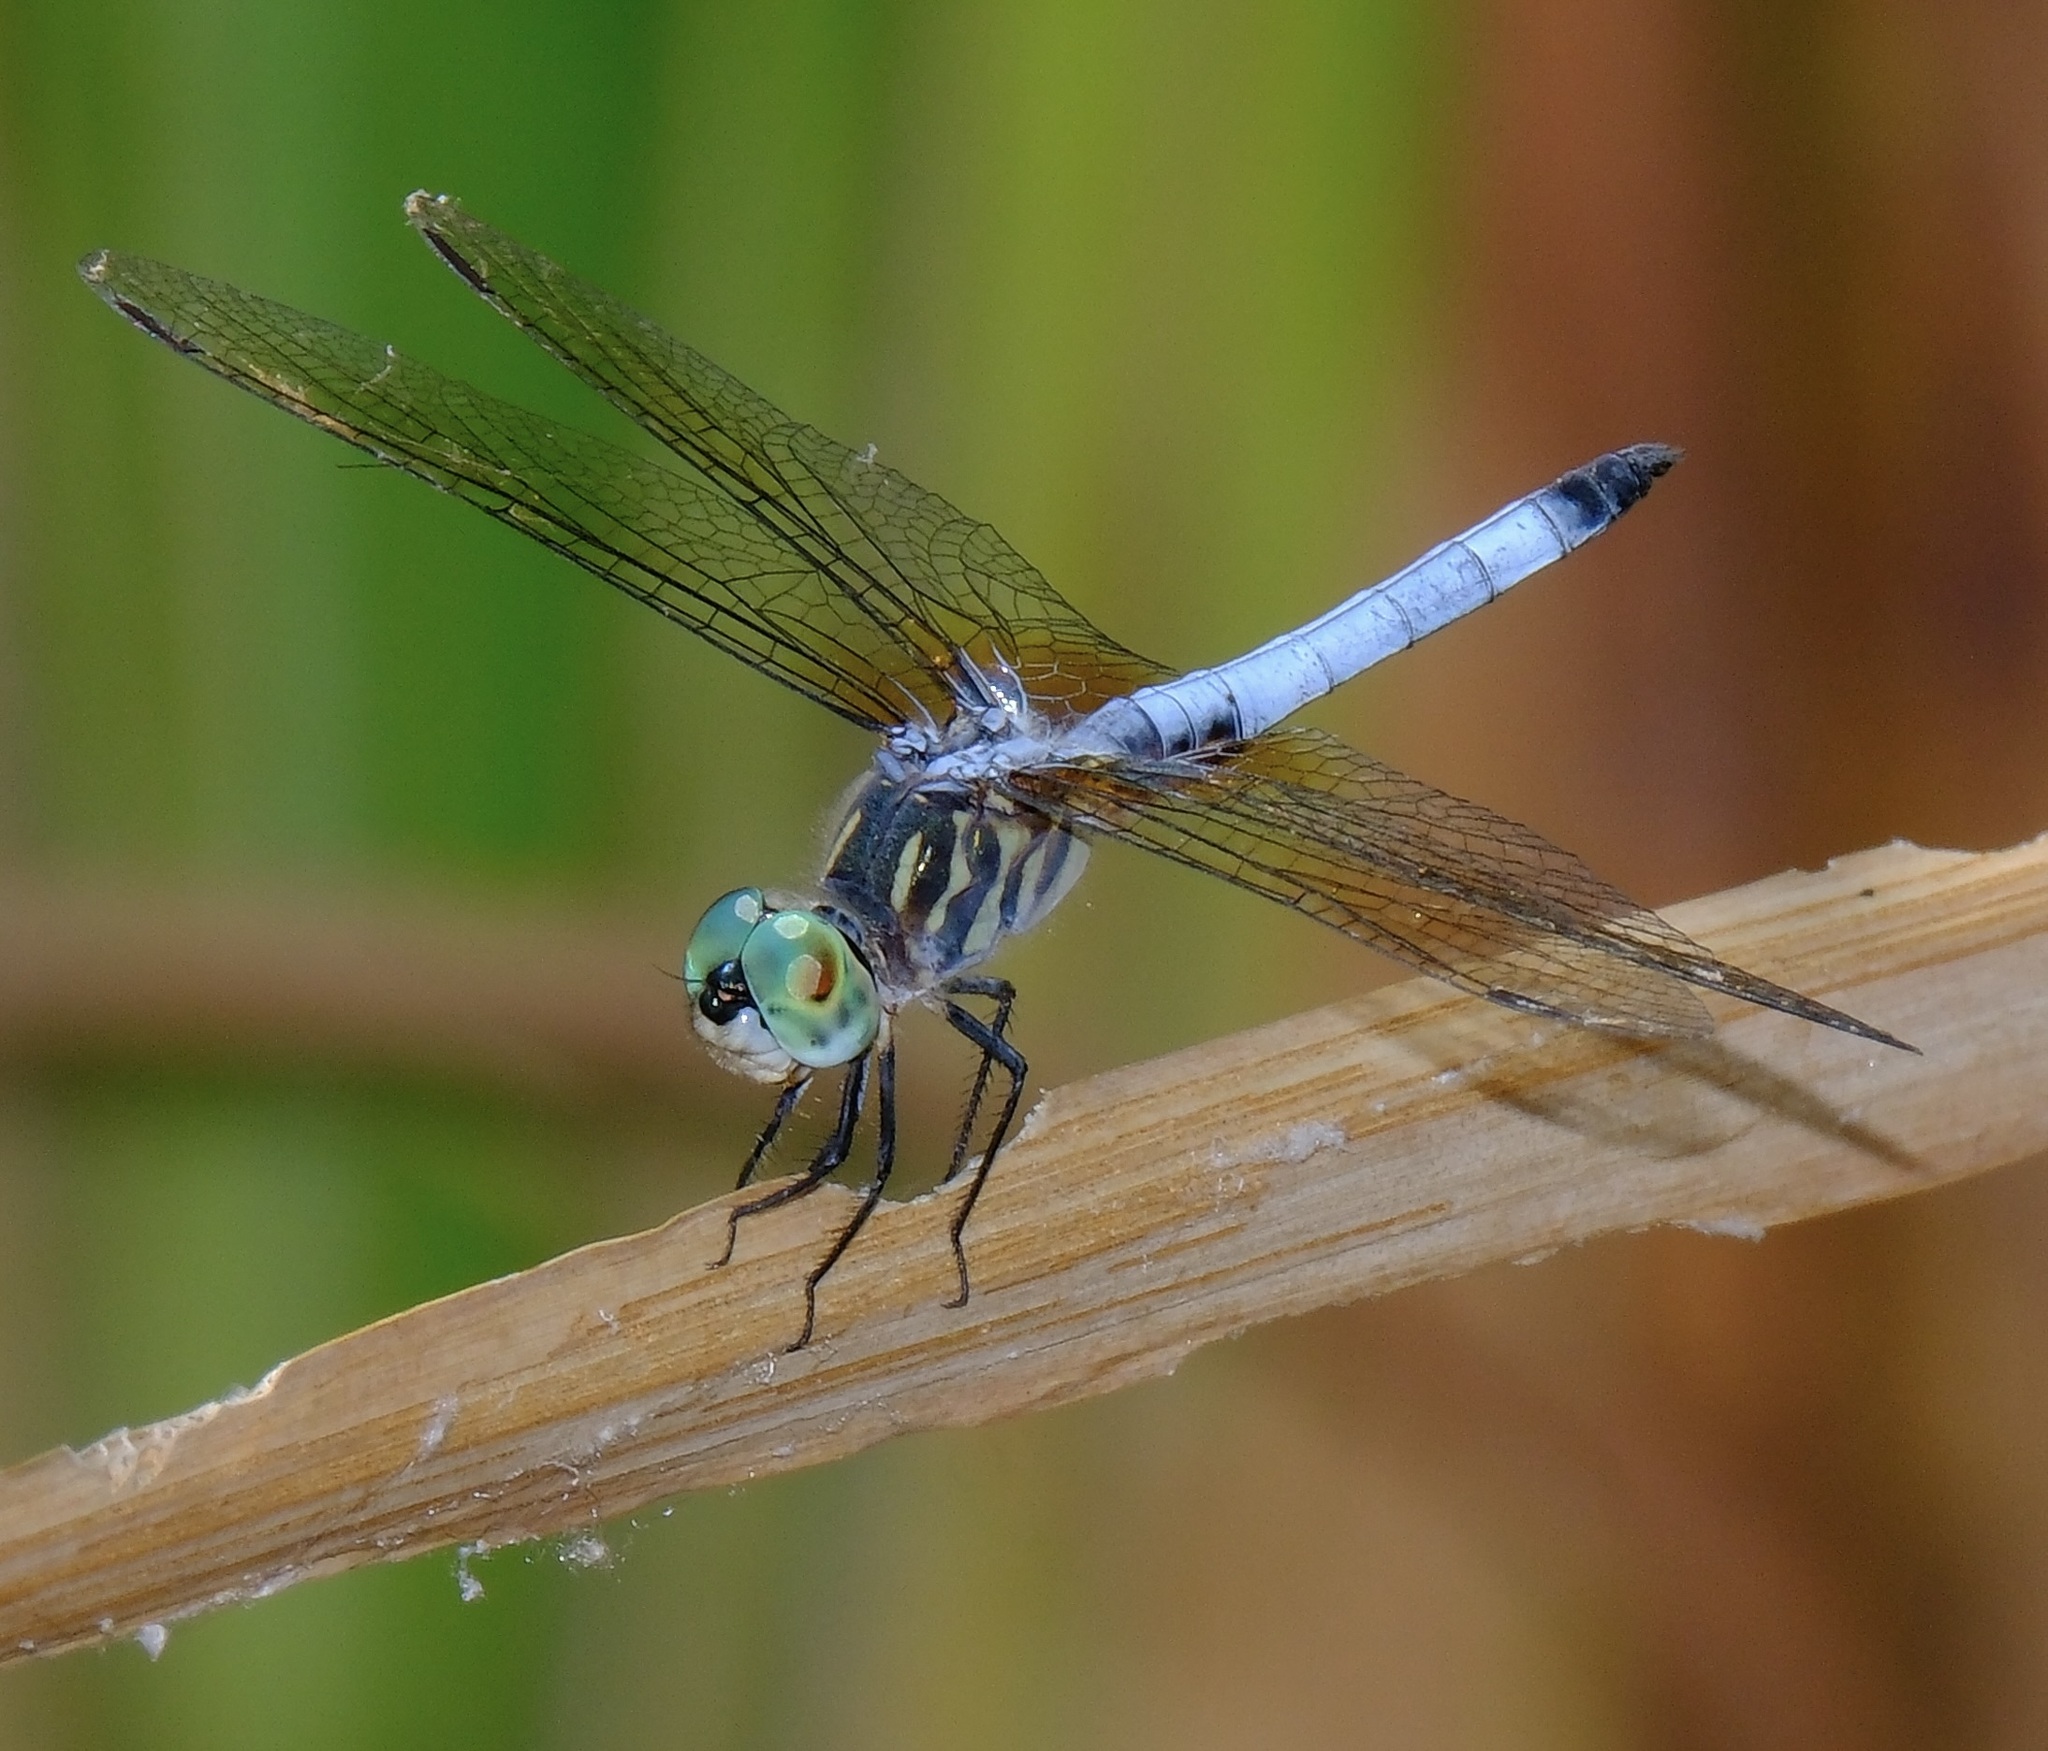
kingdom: Animalia
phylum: Arthropoda
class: Insecta
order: Odonata
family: Libellulidae
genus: Pachydiplax
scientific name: Pachydiplax longipennis
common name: Blue dasher
